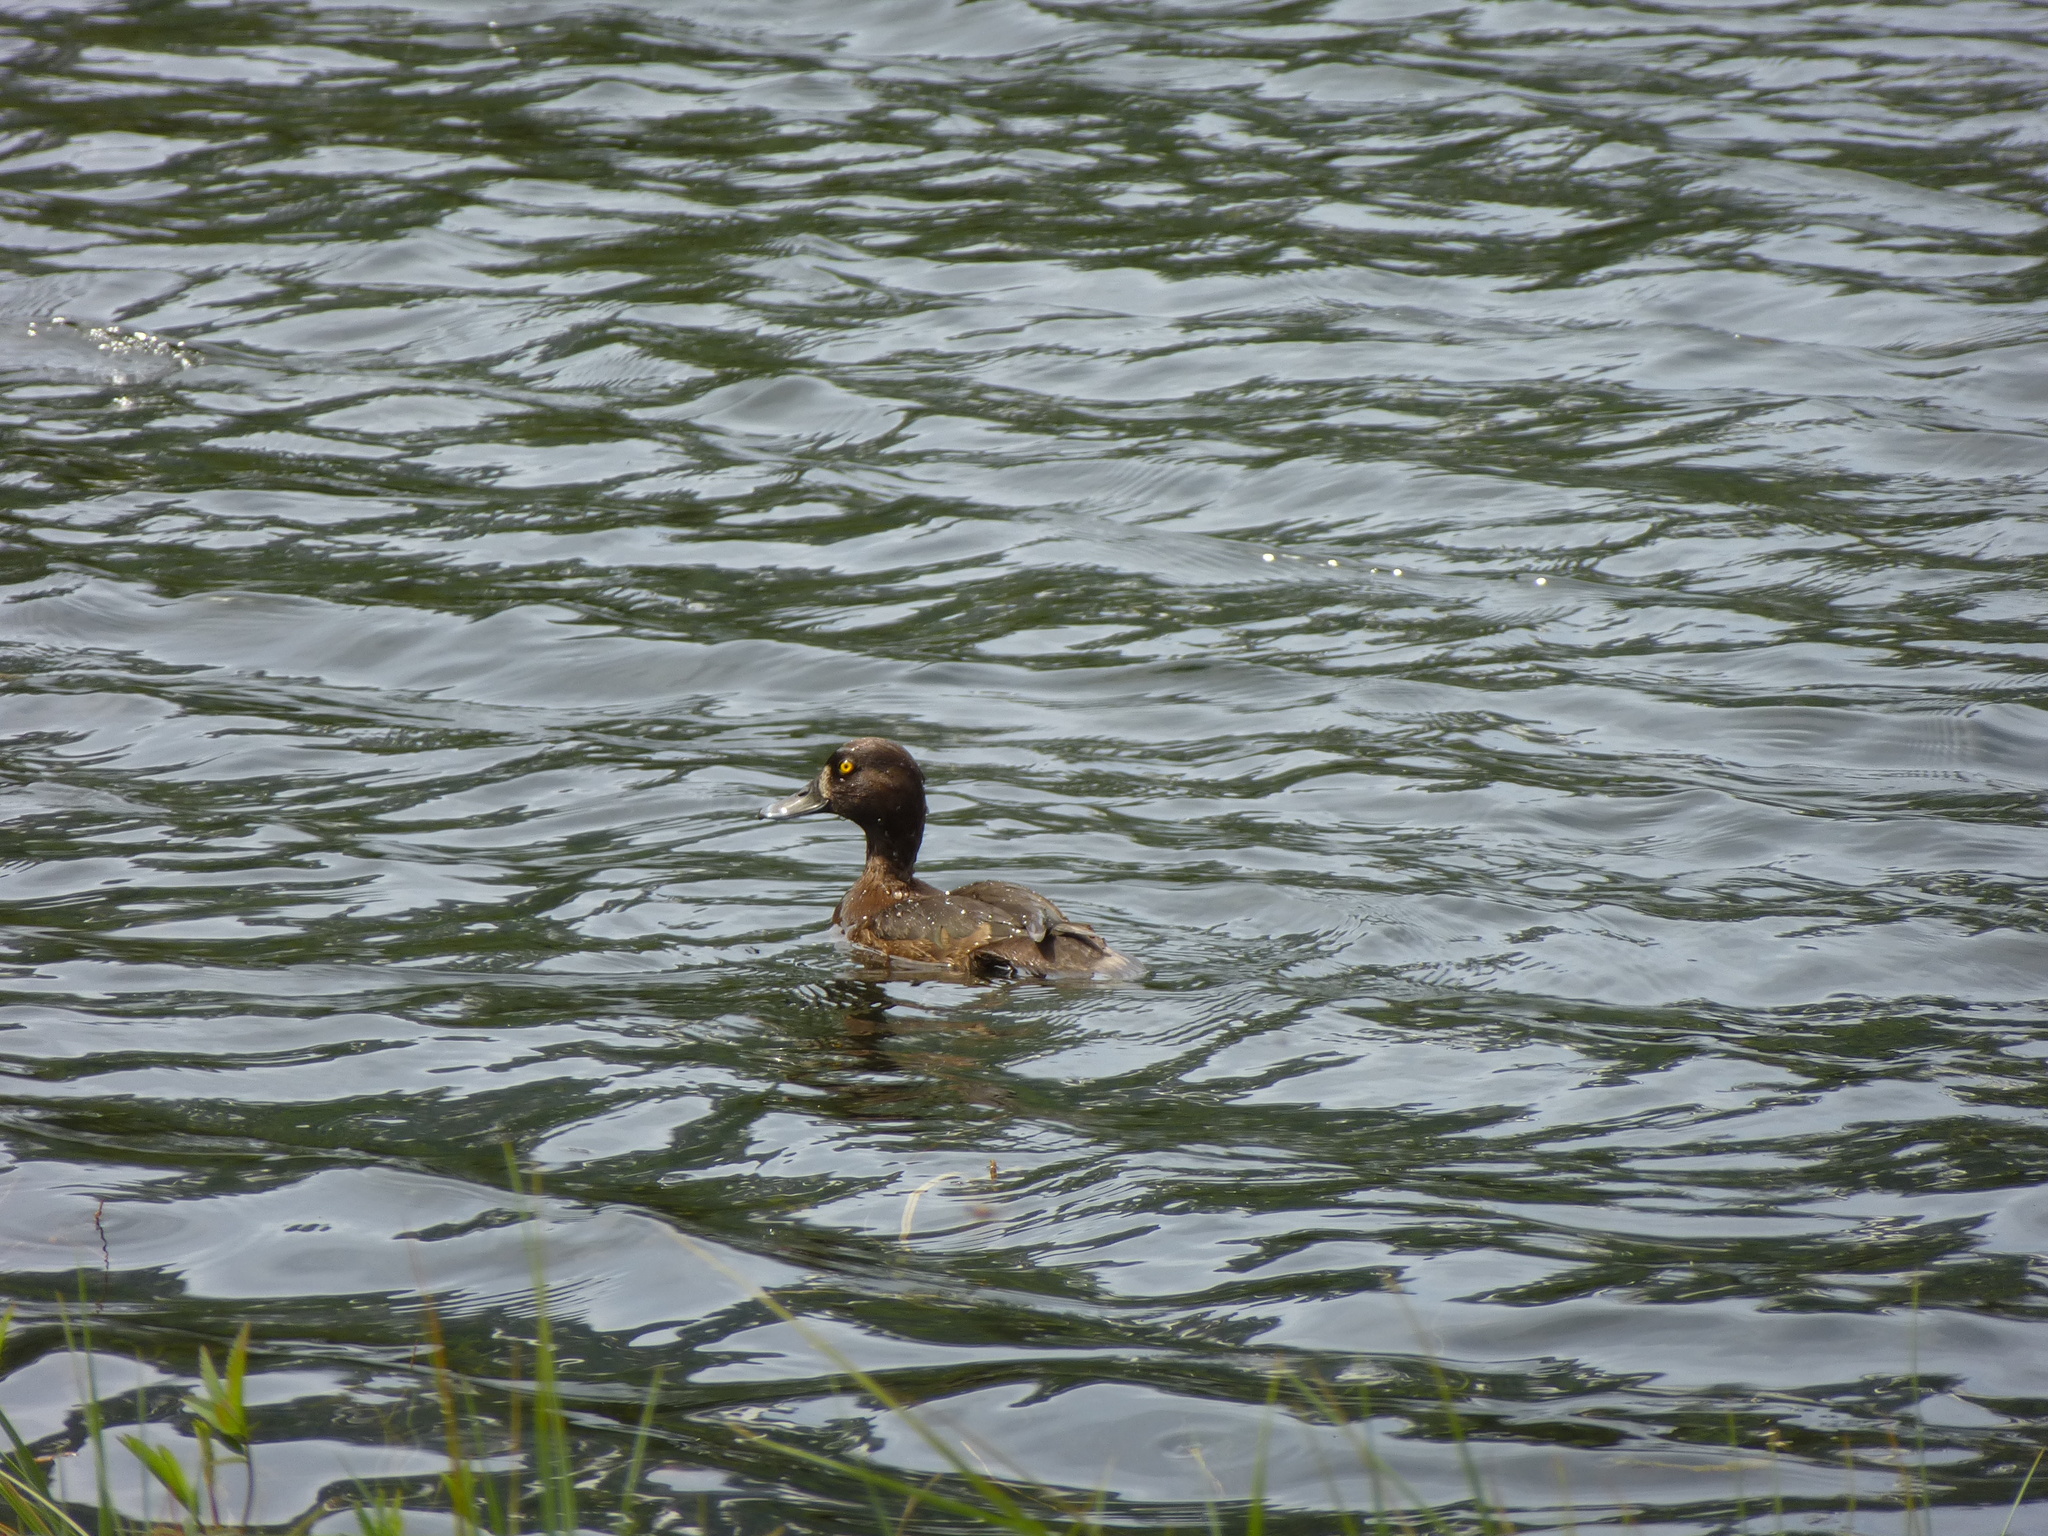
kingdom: Animalia
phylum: Chordata
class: Aves
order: Anseriformes
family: Anatidae
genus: Aythya
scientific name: Aythya fuligula
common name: Tufted duck
